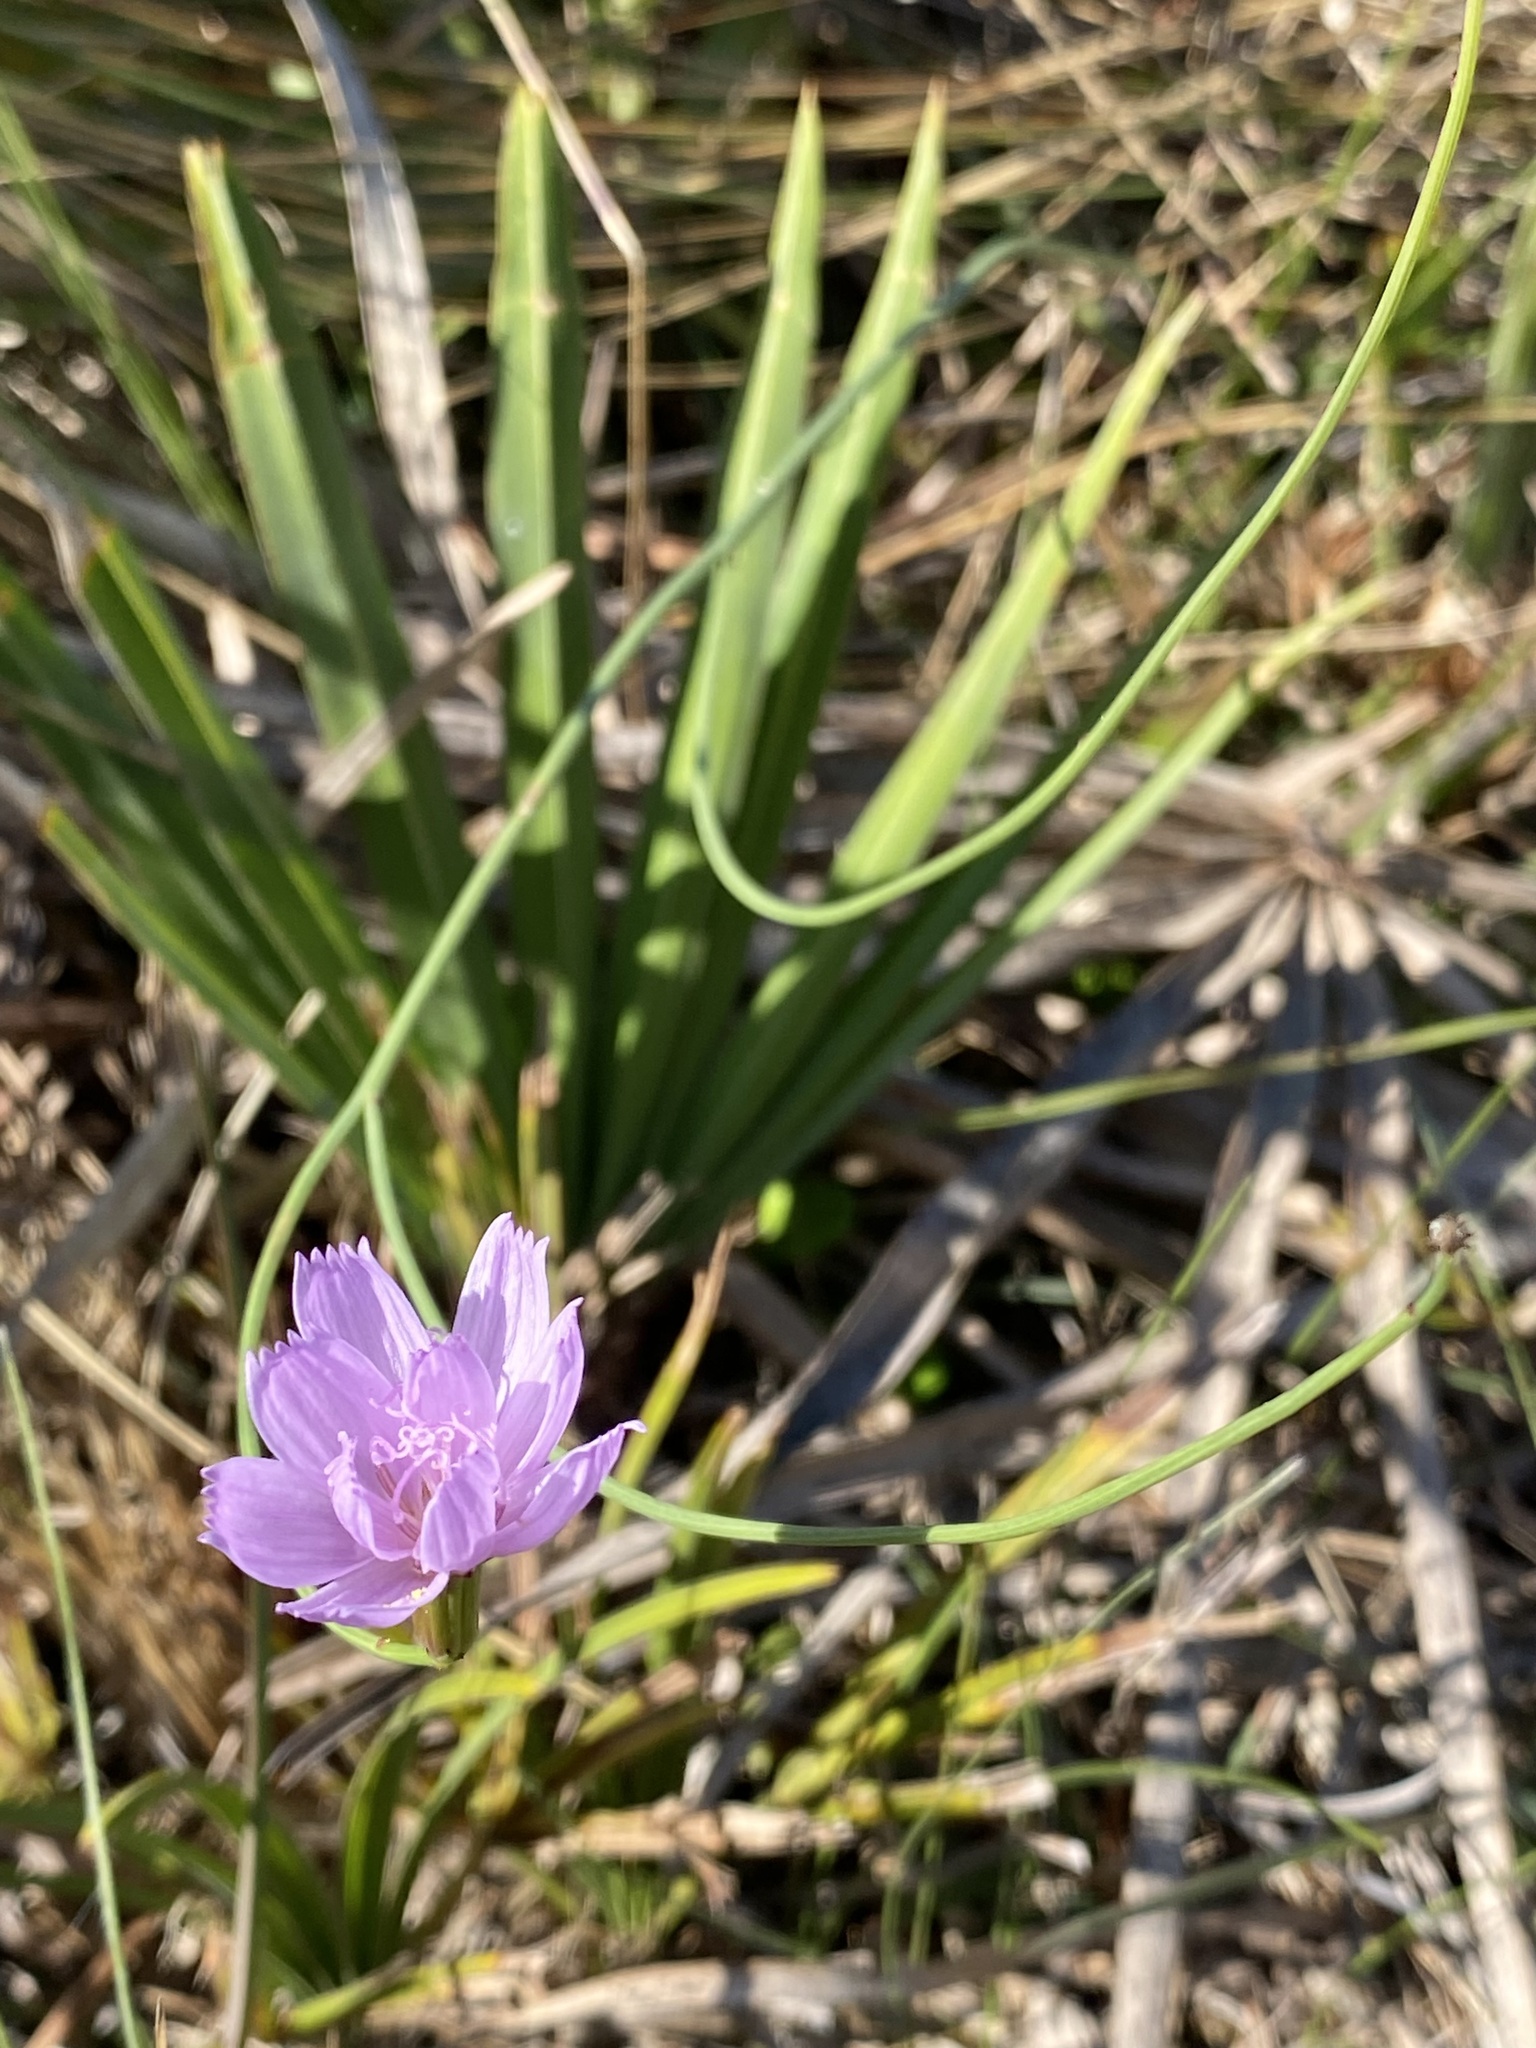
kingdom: Plantae
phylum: Tracheophyta
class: Magnoliopsida
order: Asterales
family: Asteraceae
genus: Lygodesmia
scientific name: Lygodesmia aphylla
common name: Rose-rush
